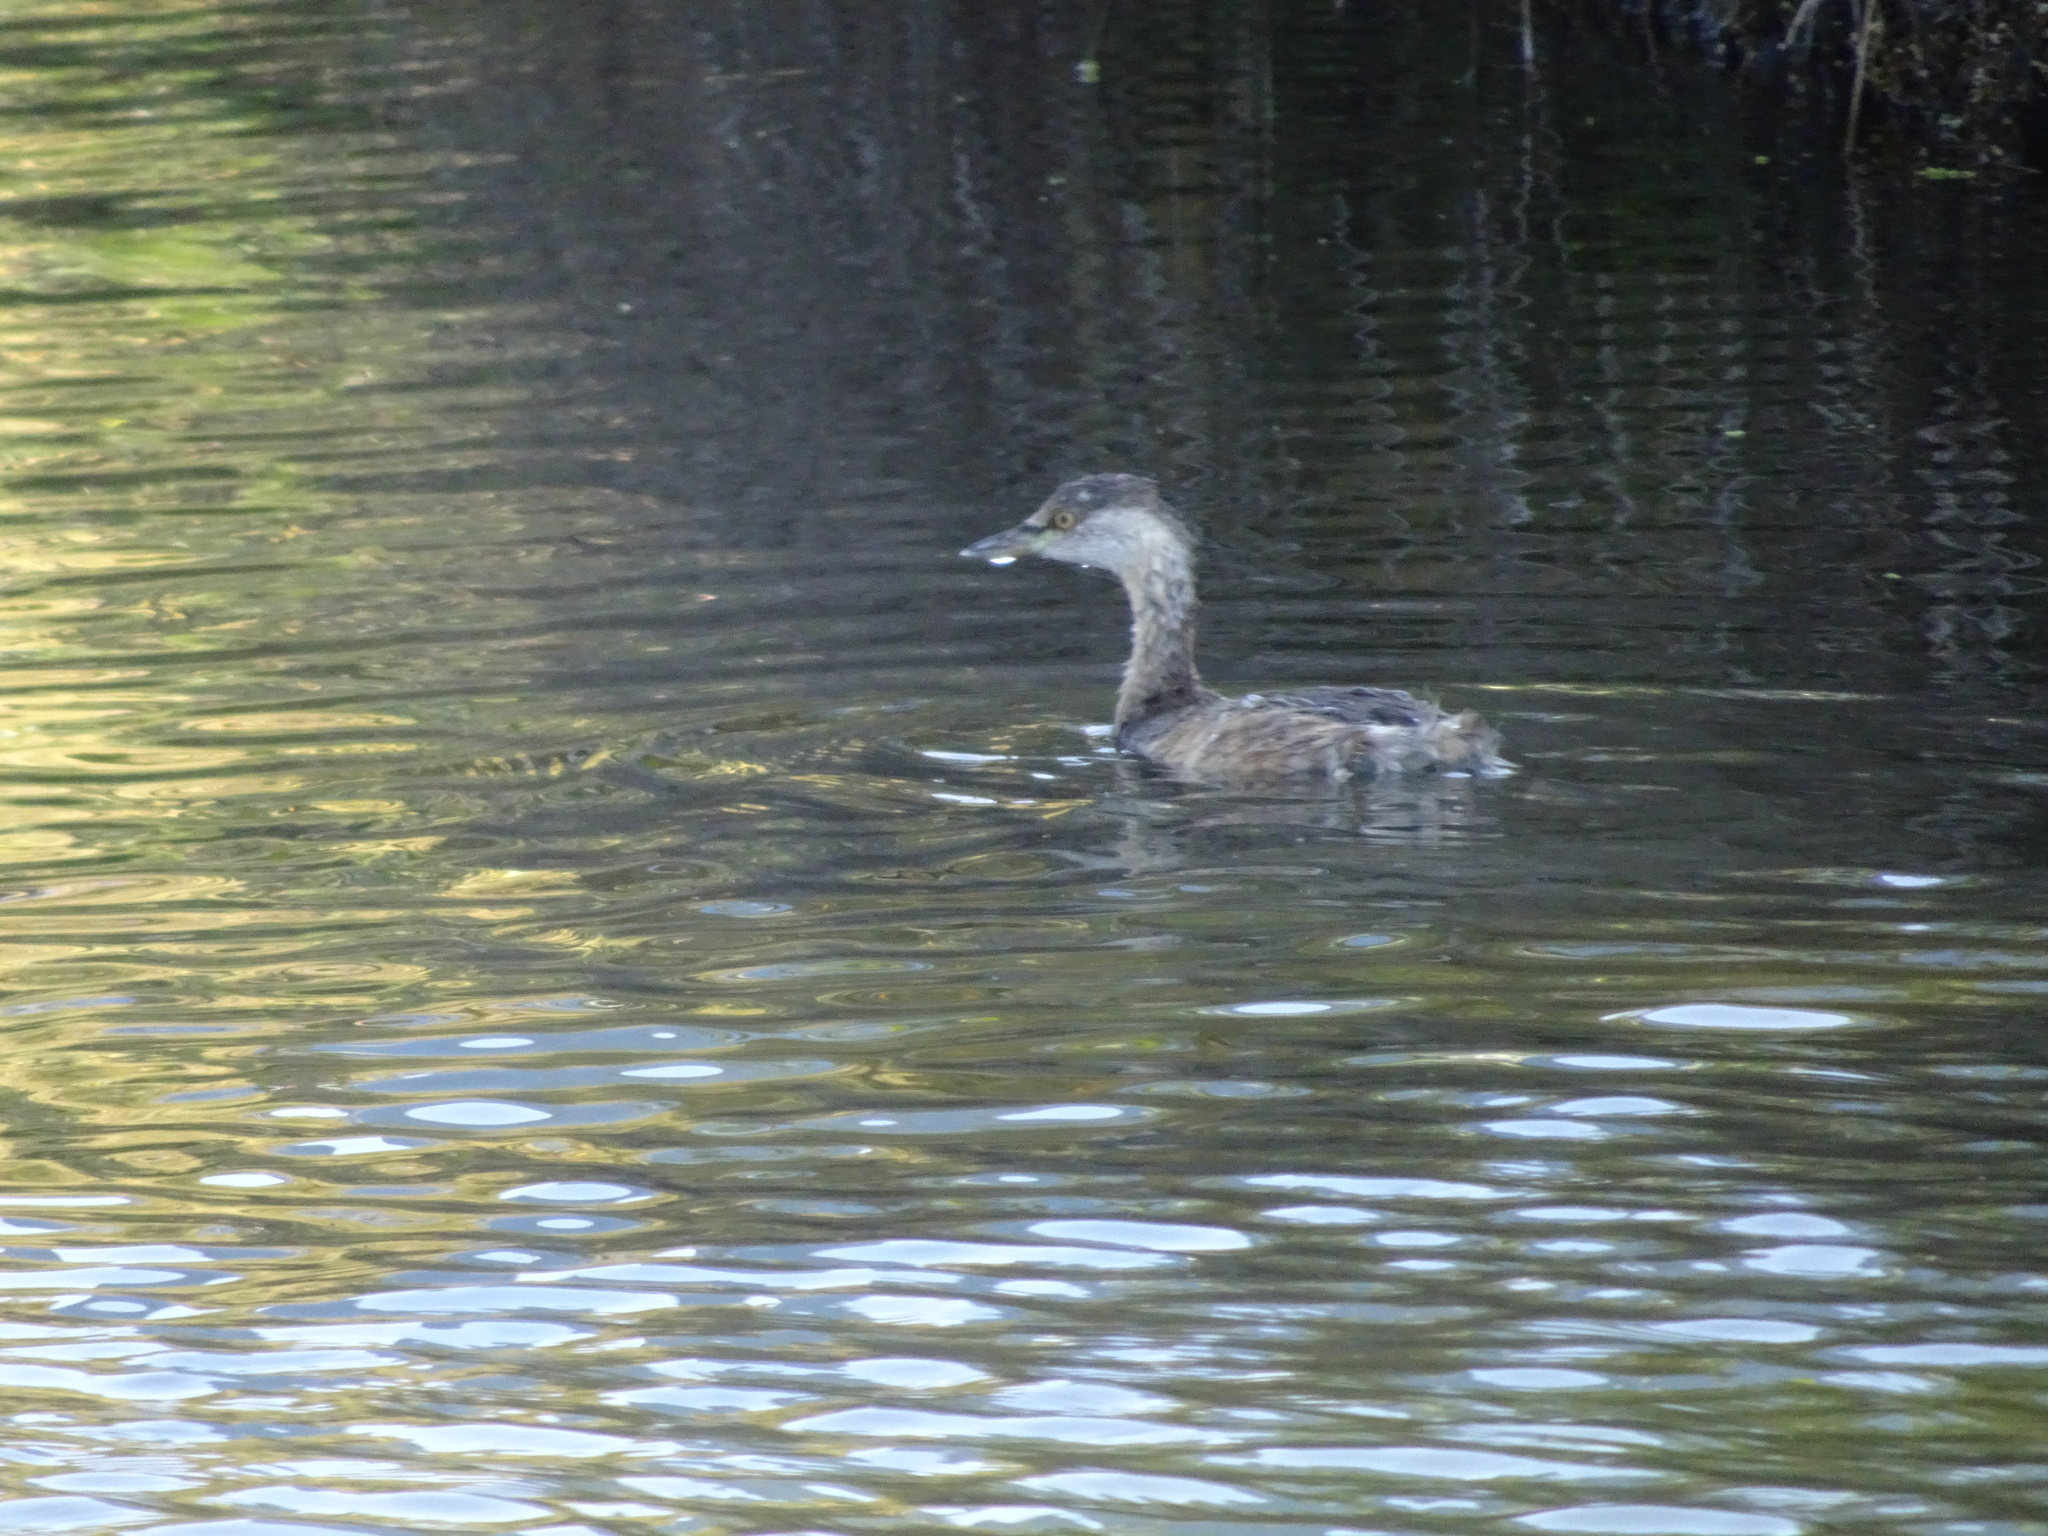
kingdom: Animalia
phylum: Chordata
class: Aves
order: Podicipediformes
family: Podicipedidae
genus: Tachybaptus
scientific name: Tachybaptus novaehollandiae
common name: Australasian grebe
